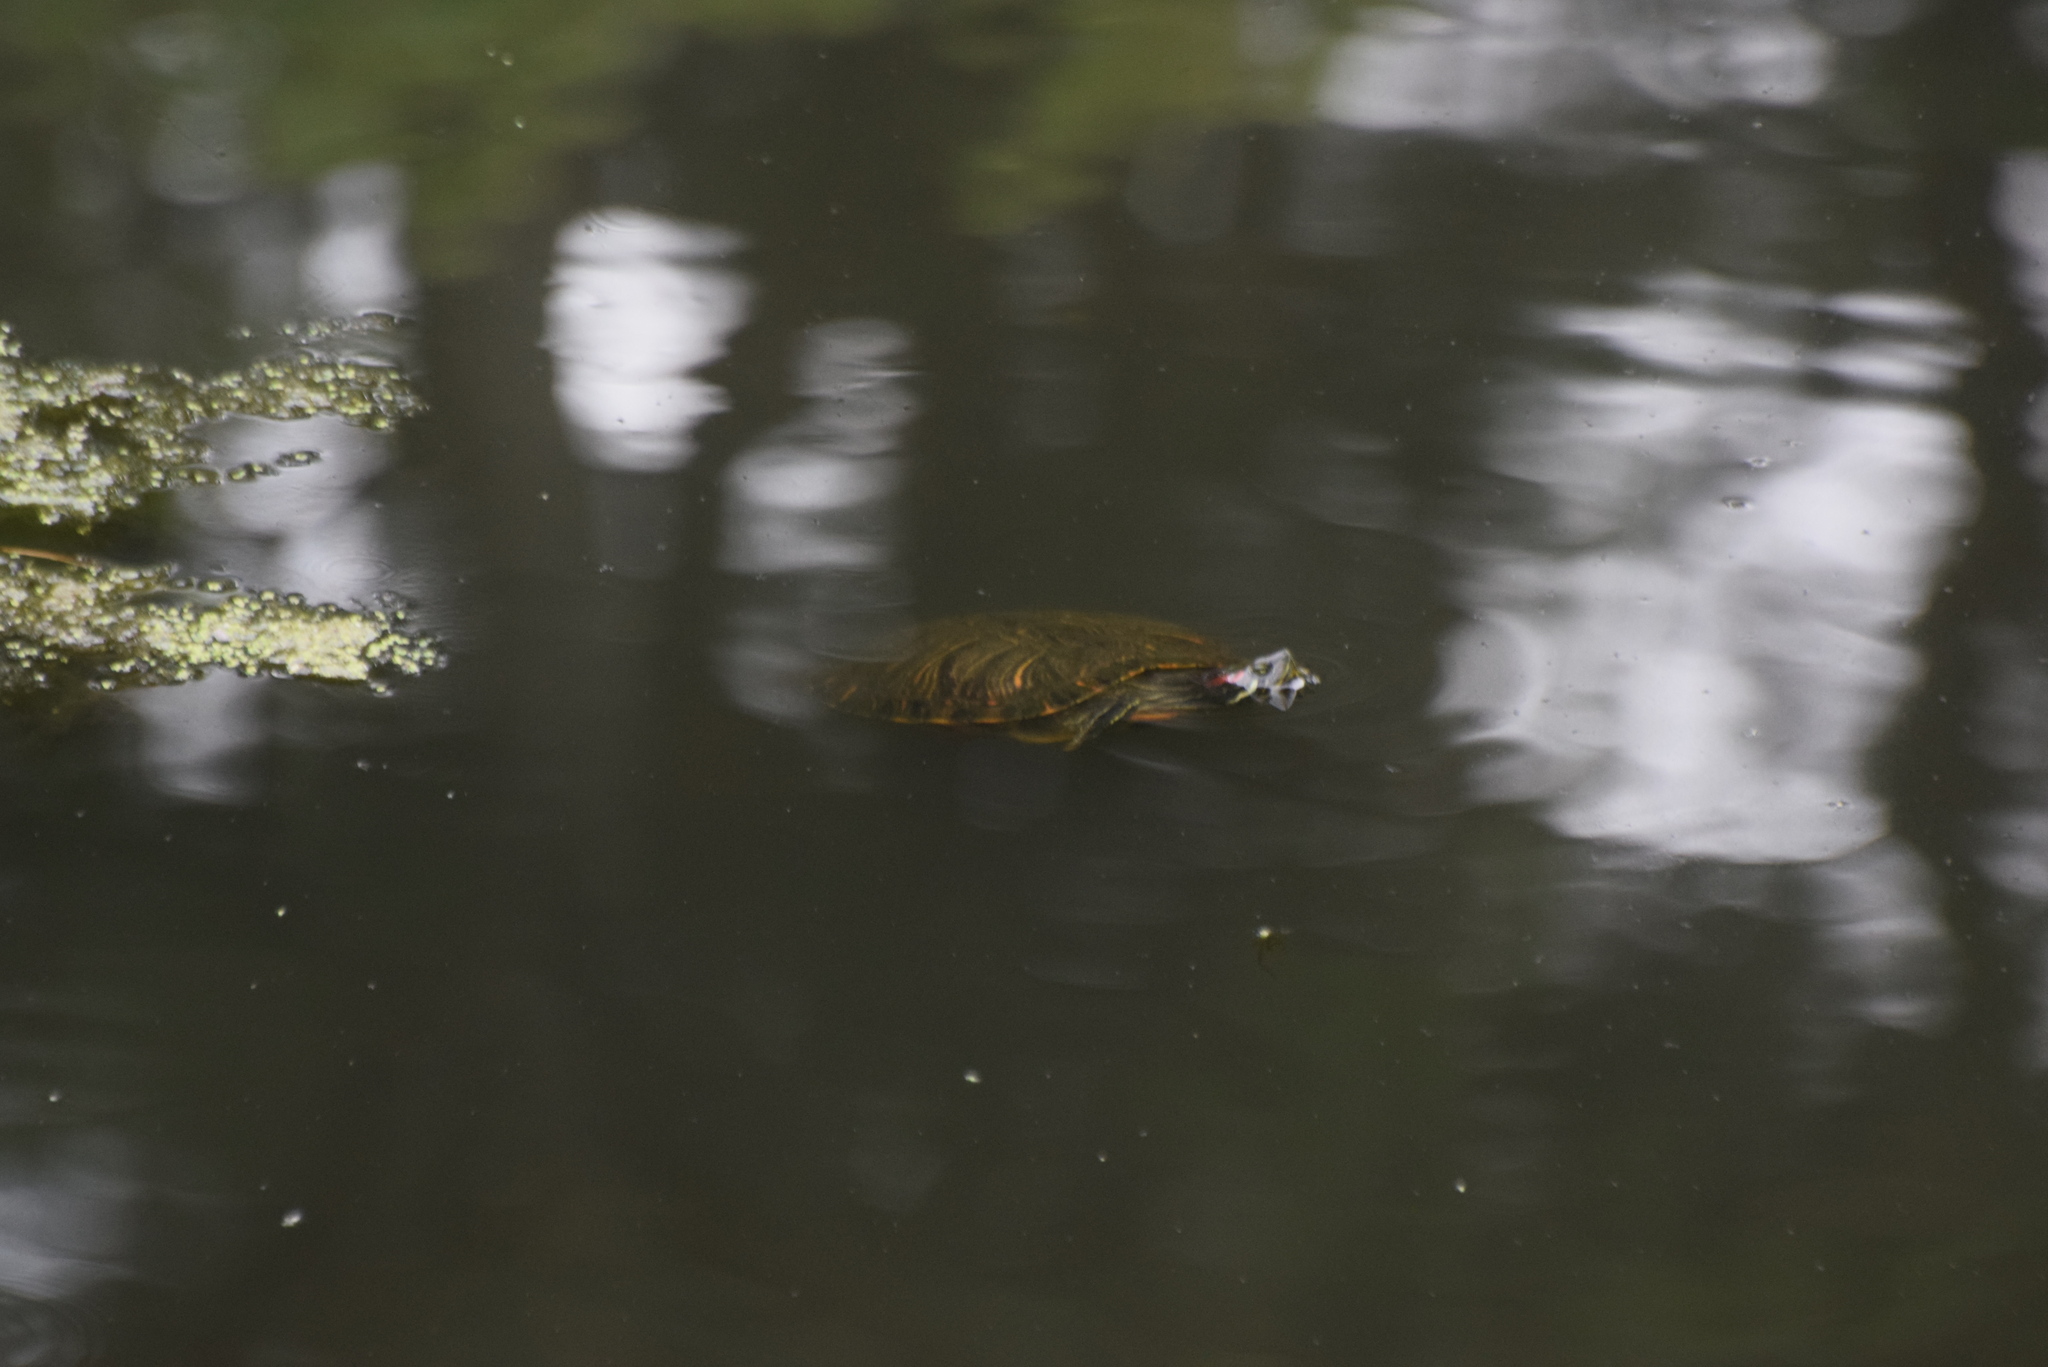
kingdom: Animalia
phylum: Chordata
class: Testudines
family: Emydidae
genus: Trachemys
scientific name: Trachemys scripta
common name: Slider
